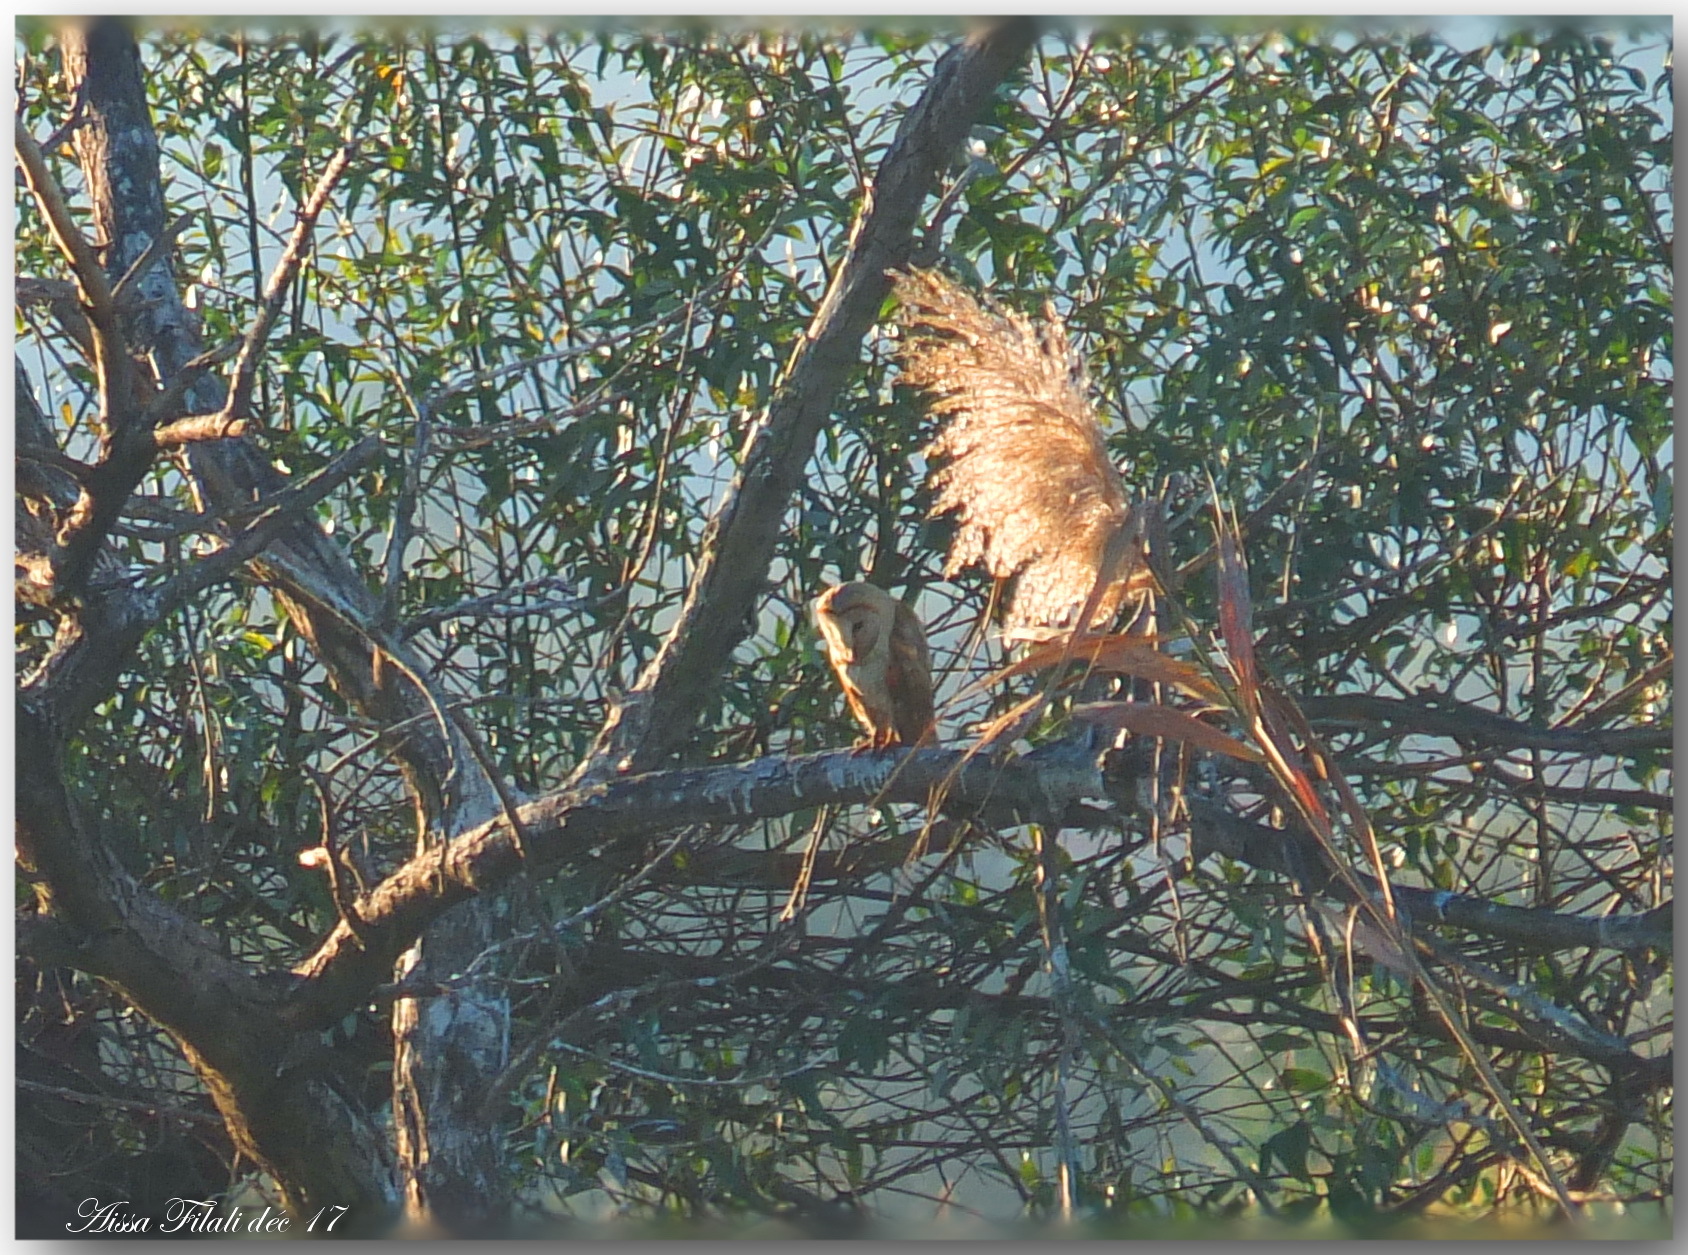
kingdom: Animalia
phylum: Chordata
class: Aves
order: Strigiformes
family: Tytonidae
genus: Tyto
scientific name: Tyto alba
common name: Barn owl
